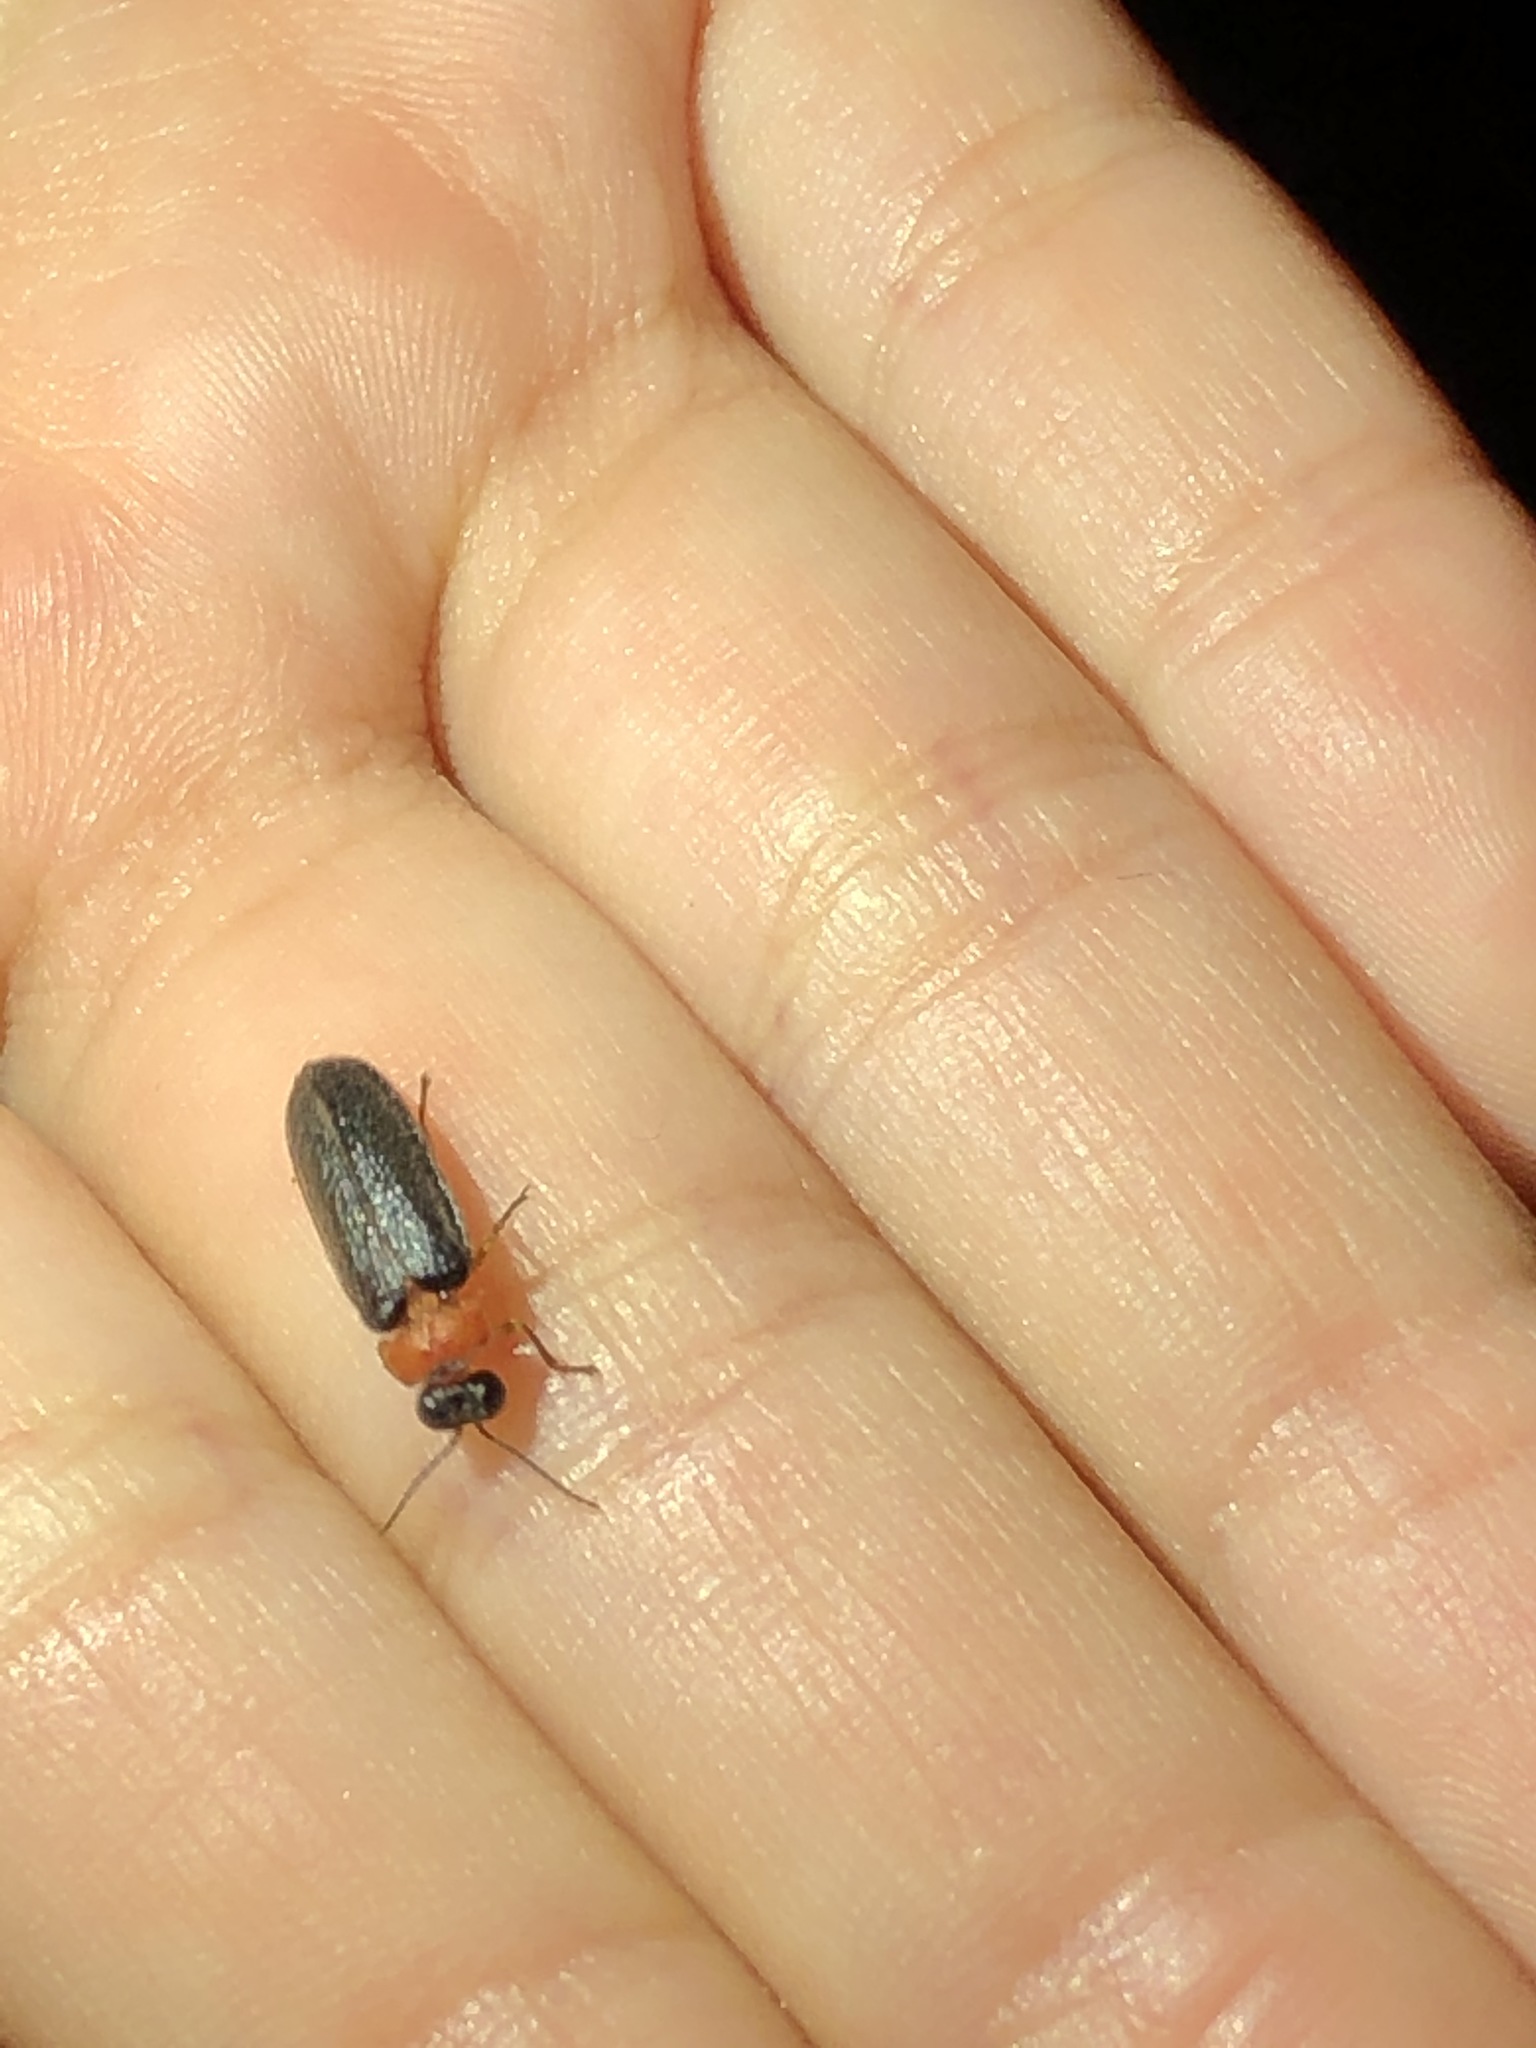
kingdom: Animalia
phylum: Arthropoda
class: Insecta
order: Coleoptera
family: Lampyridae
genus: Luciola
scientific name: Luciola lusitanica
